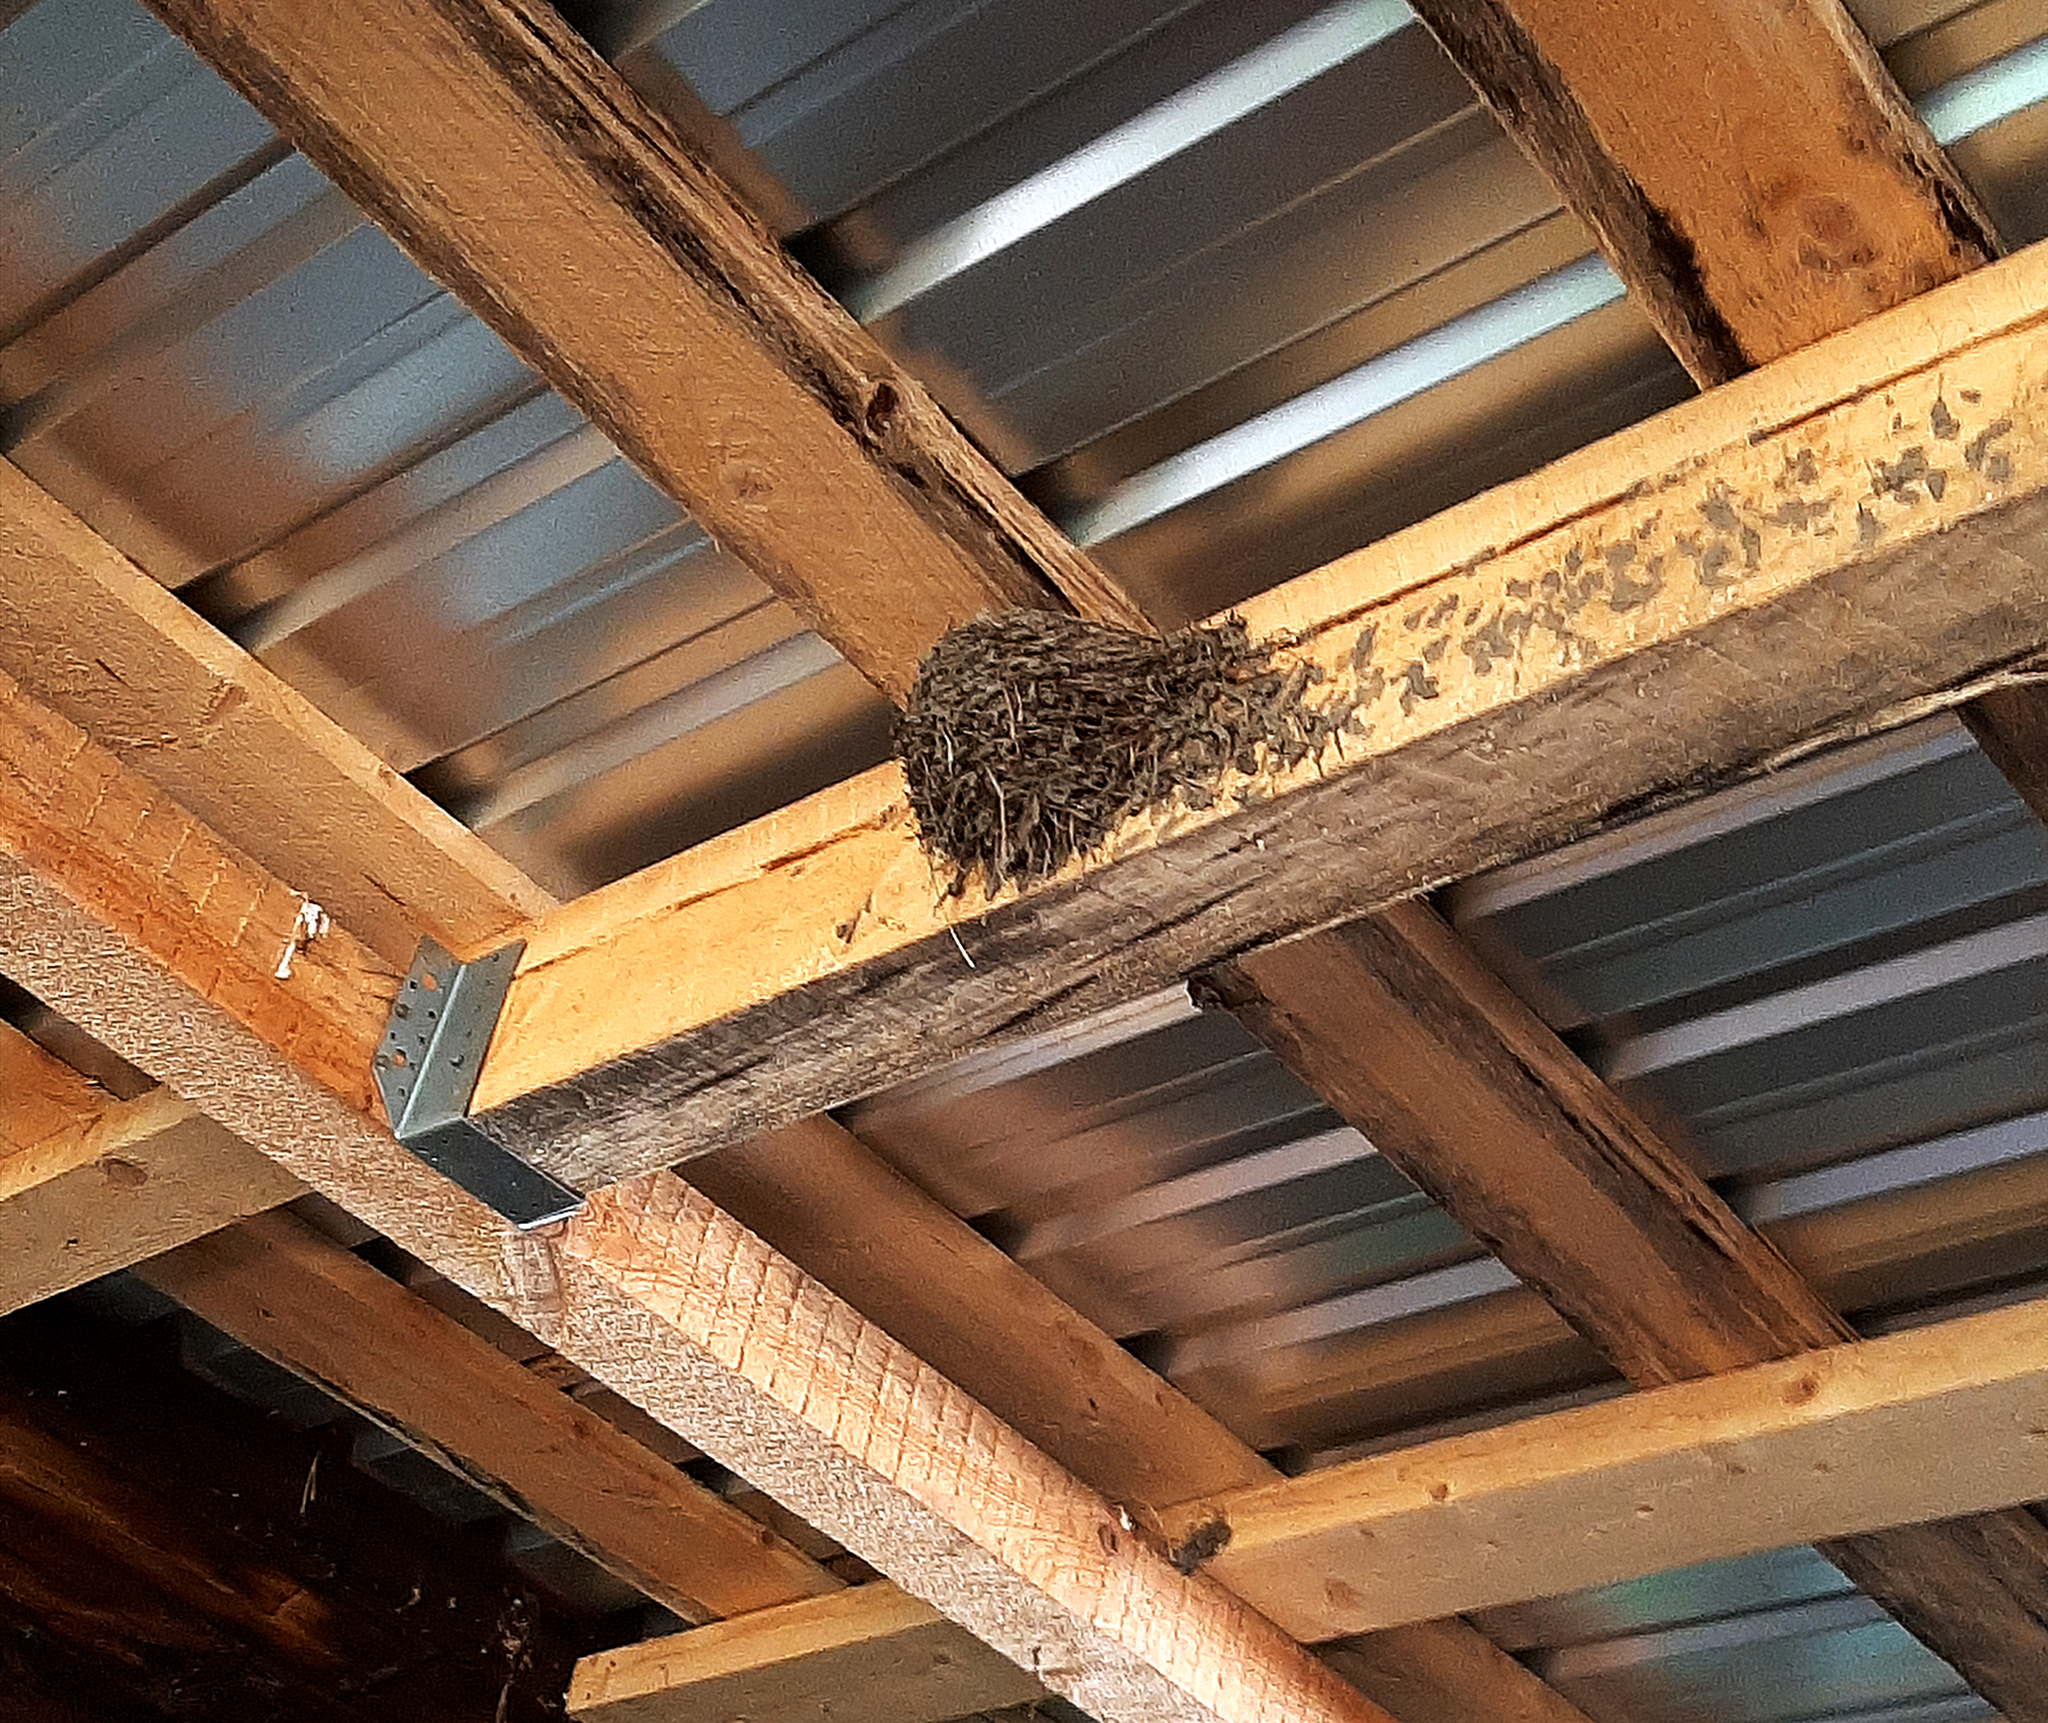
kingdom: Animalia
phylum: Chordata
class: Aves
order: Passeriformes
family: Hirundinidae
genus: Hirundo
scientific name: Hirundo rustica
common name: Barn swallow
